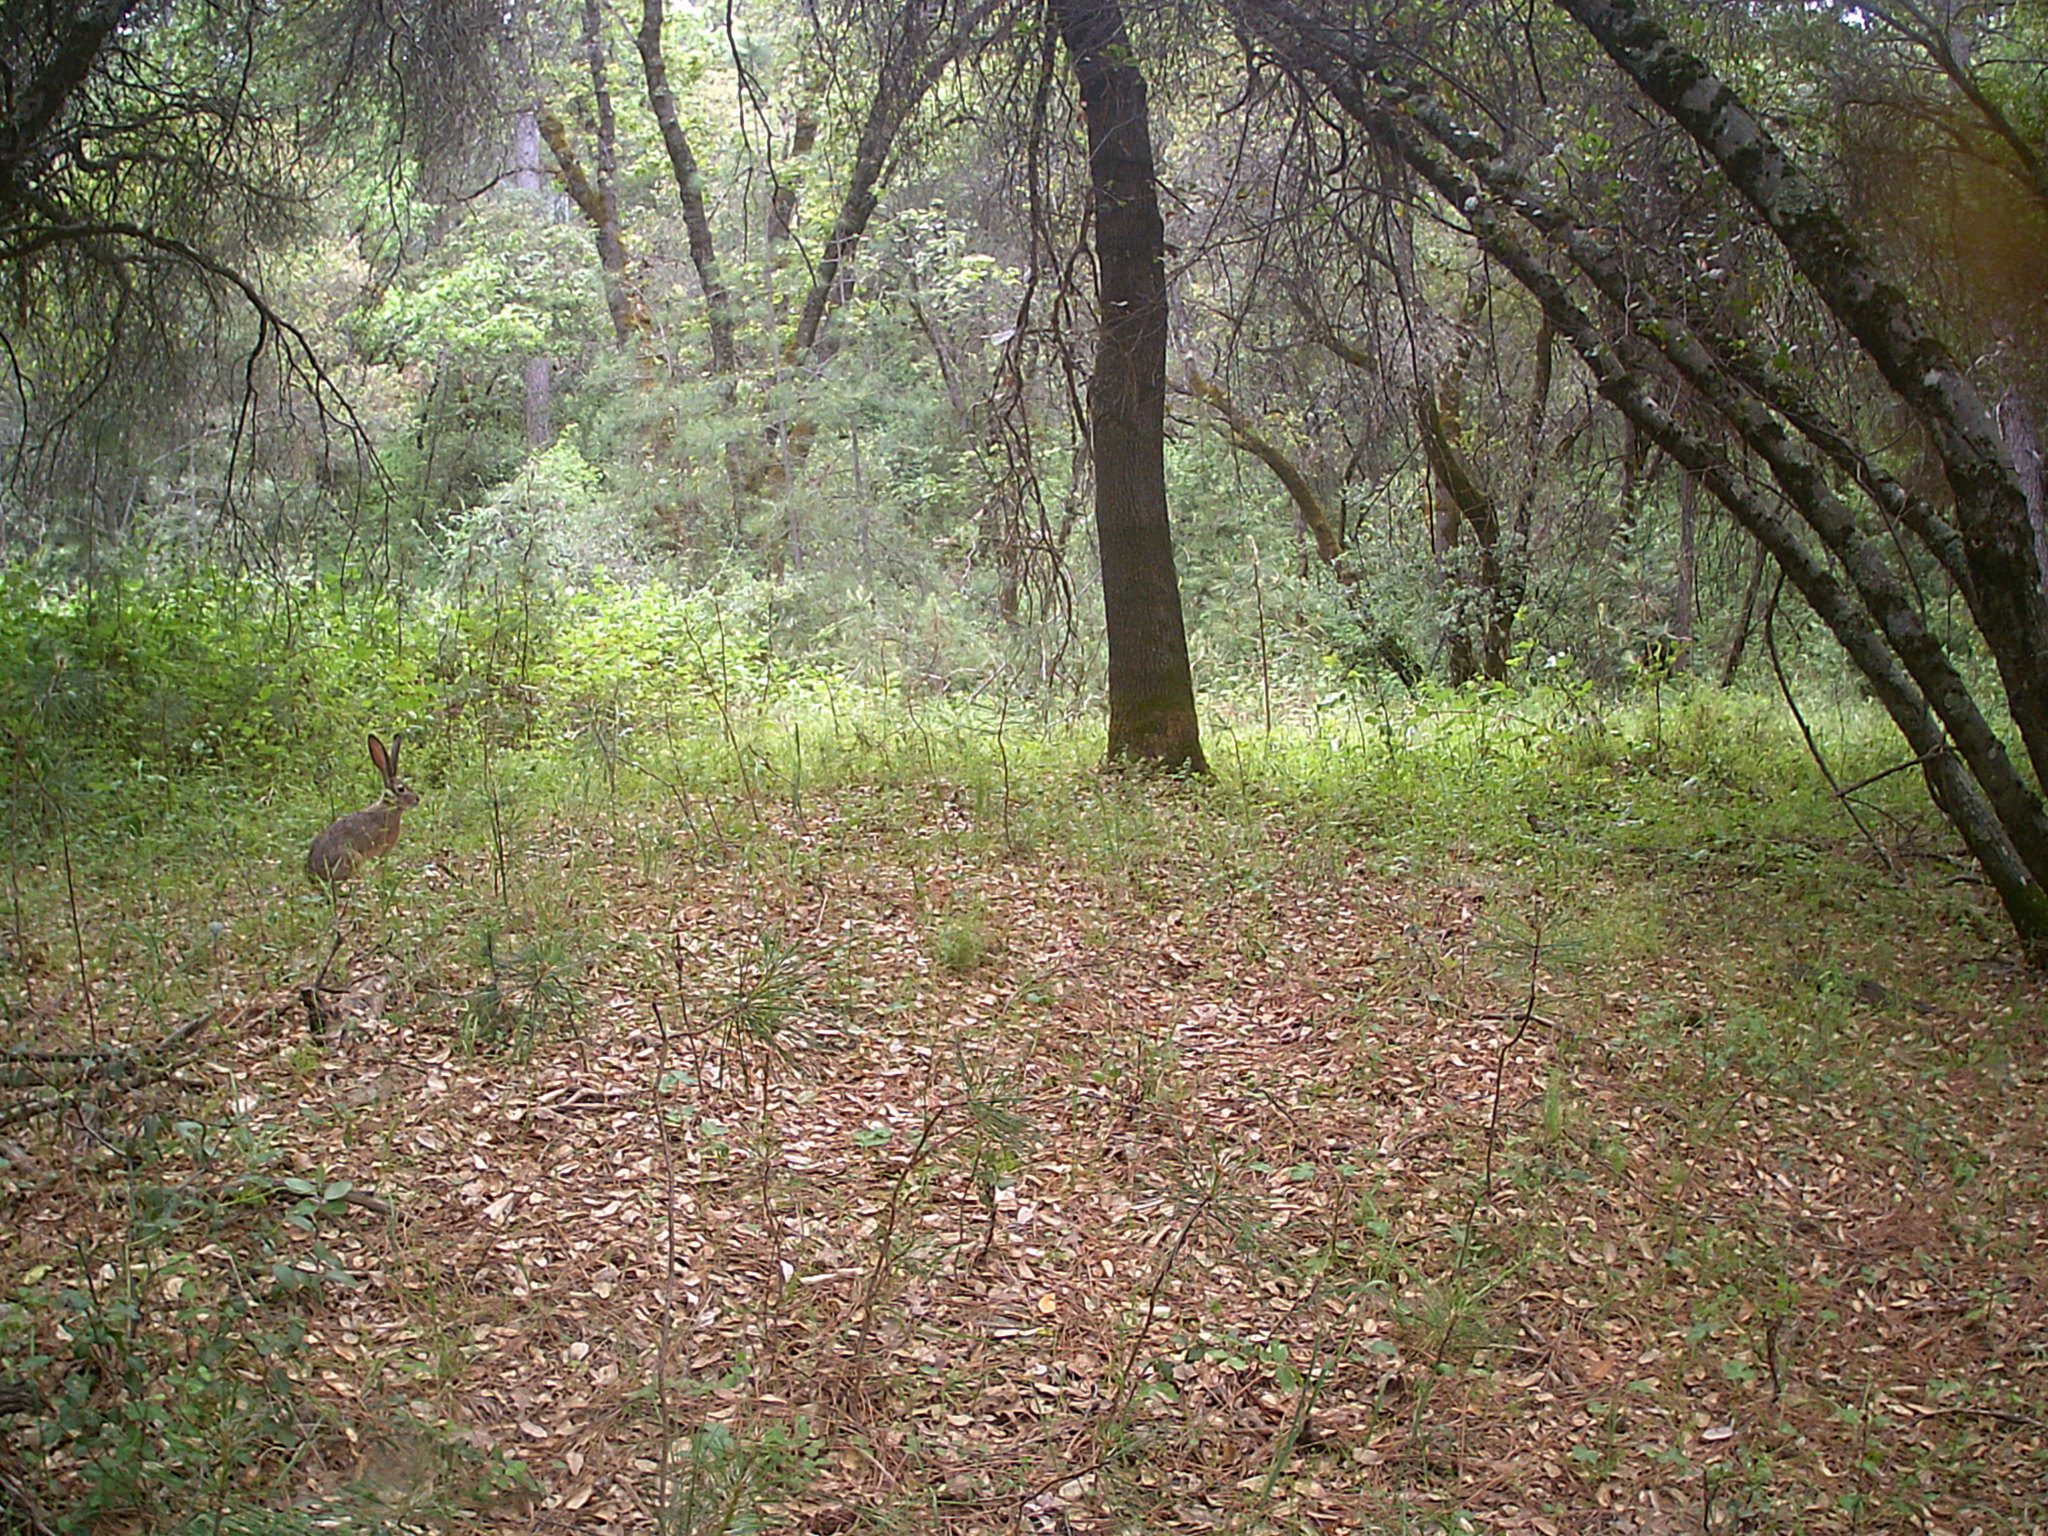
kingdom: Animalia
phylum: Chordata
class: Mammalia
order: Lagomorpha
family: Leporidae
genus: Lepus
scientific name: Lepus californicus
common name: Black-tailed jackrabbit
